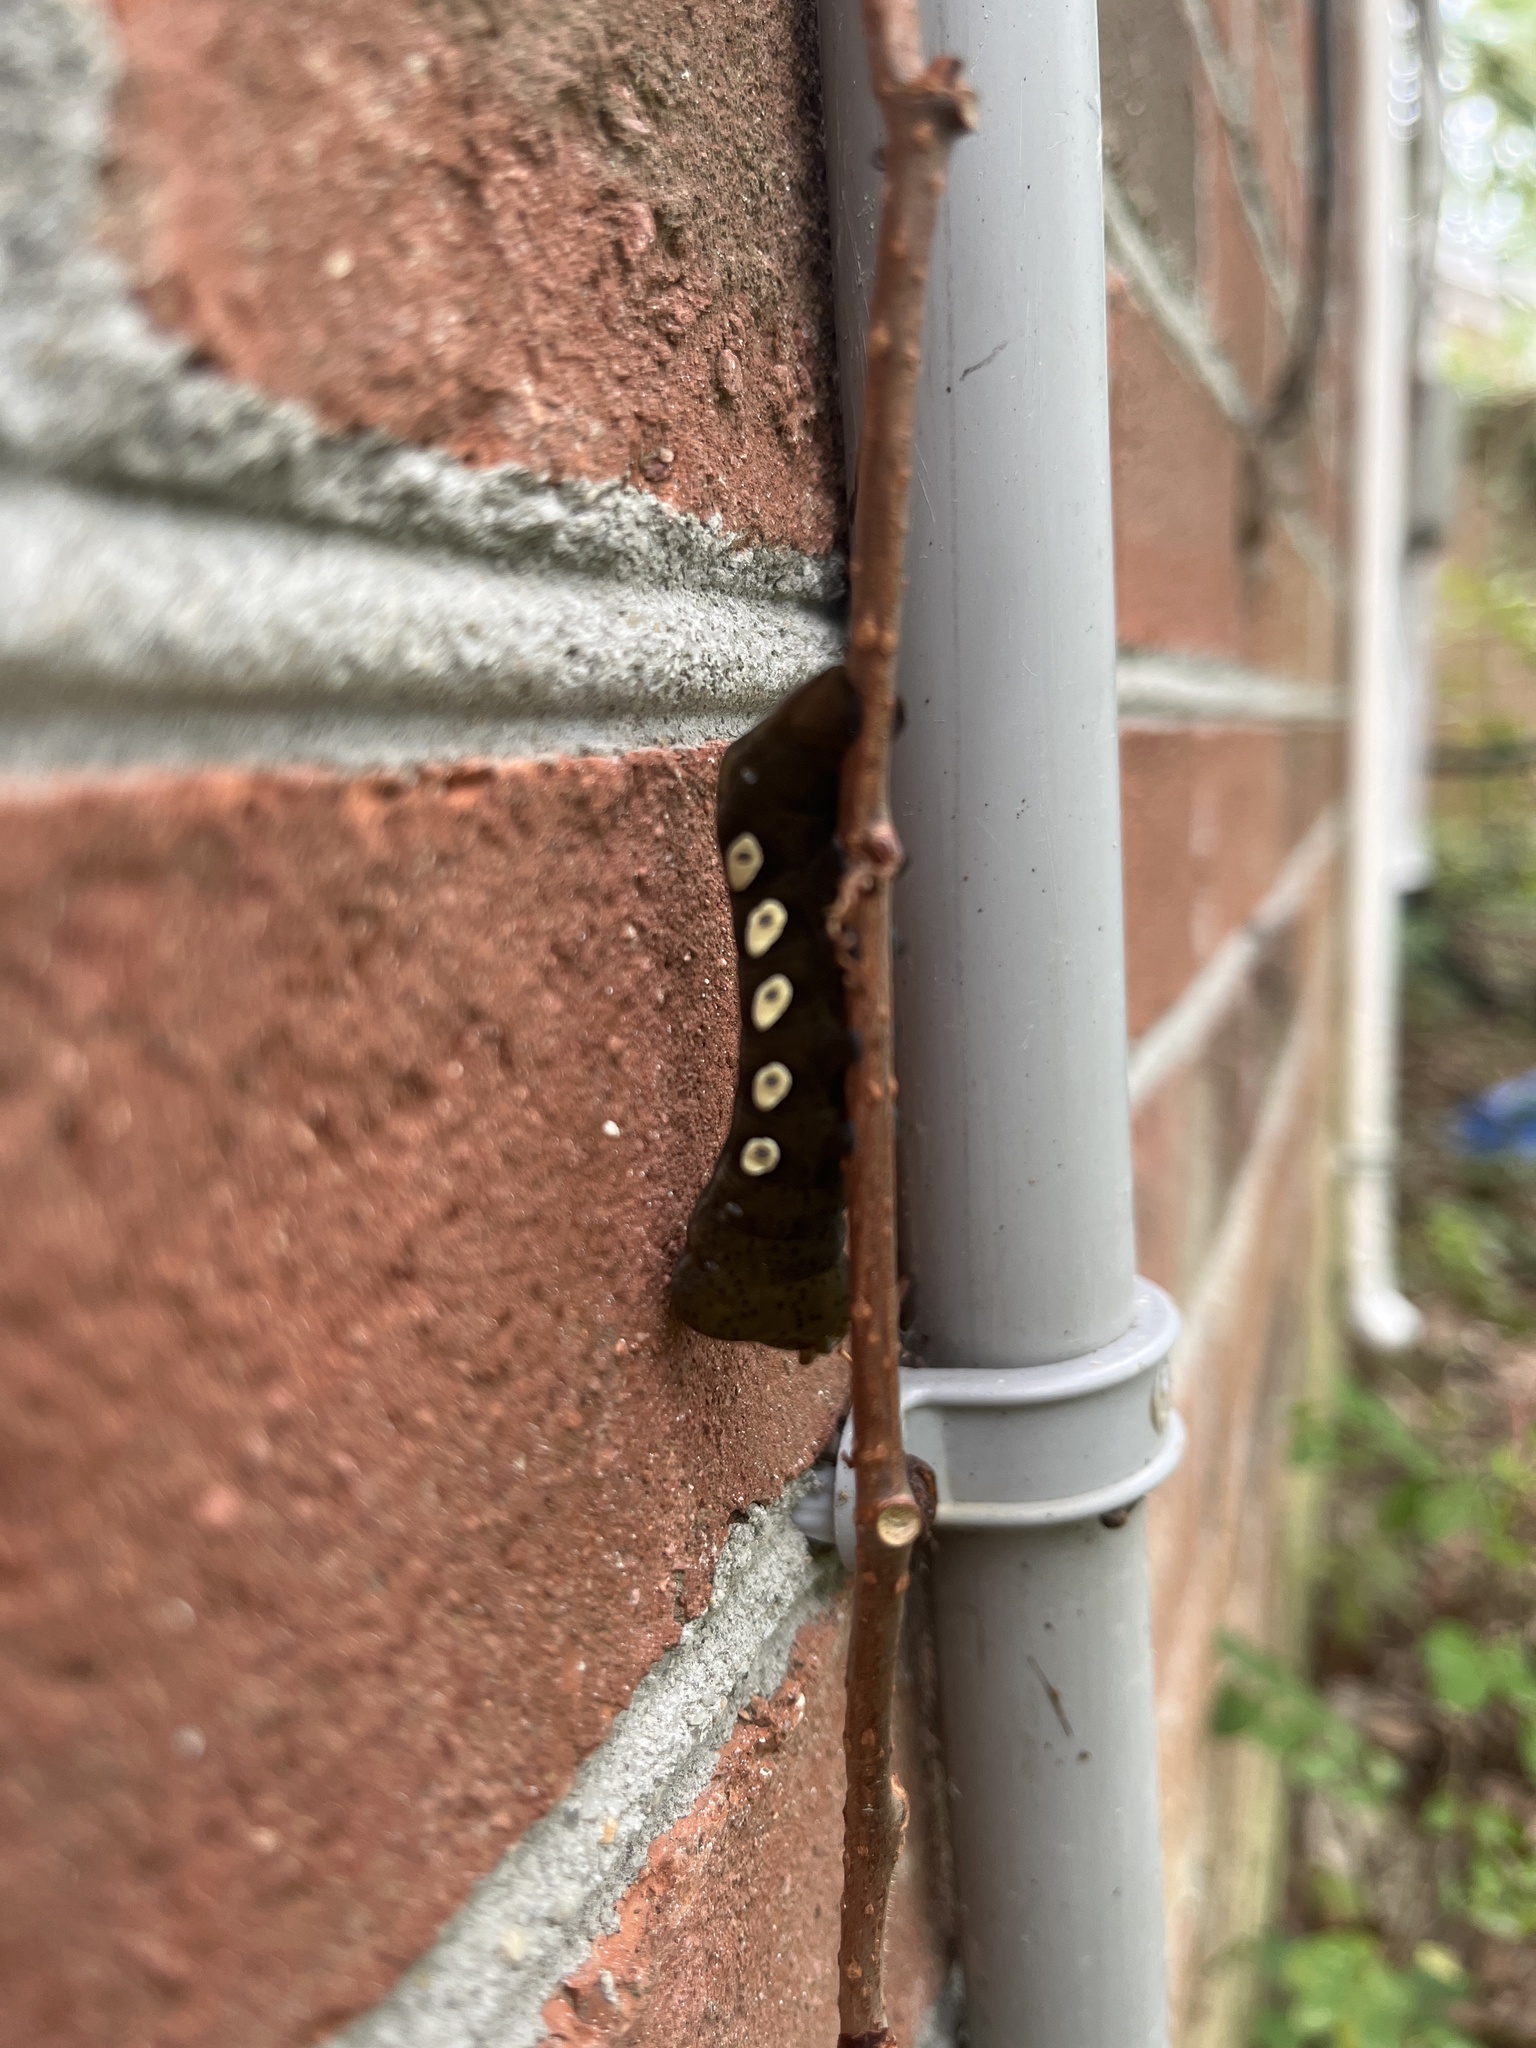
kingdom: Animalia
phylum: Arthropoda
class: Insecta
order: Lepidoptera
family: Sphingidae
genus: Eumorpha
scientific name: Eumorpha pandorus
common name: Pandora sphinx
